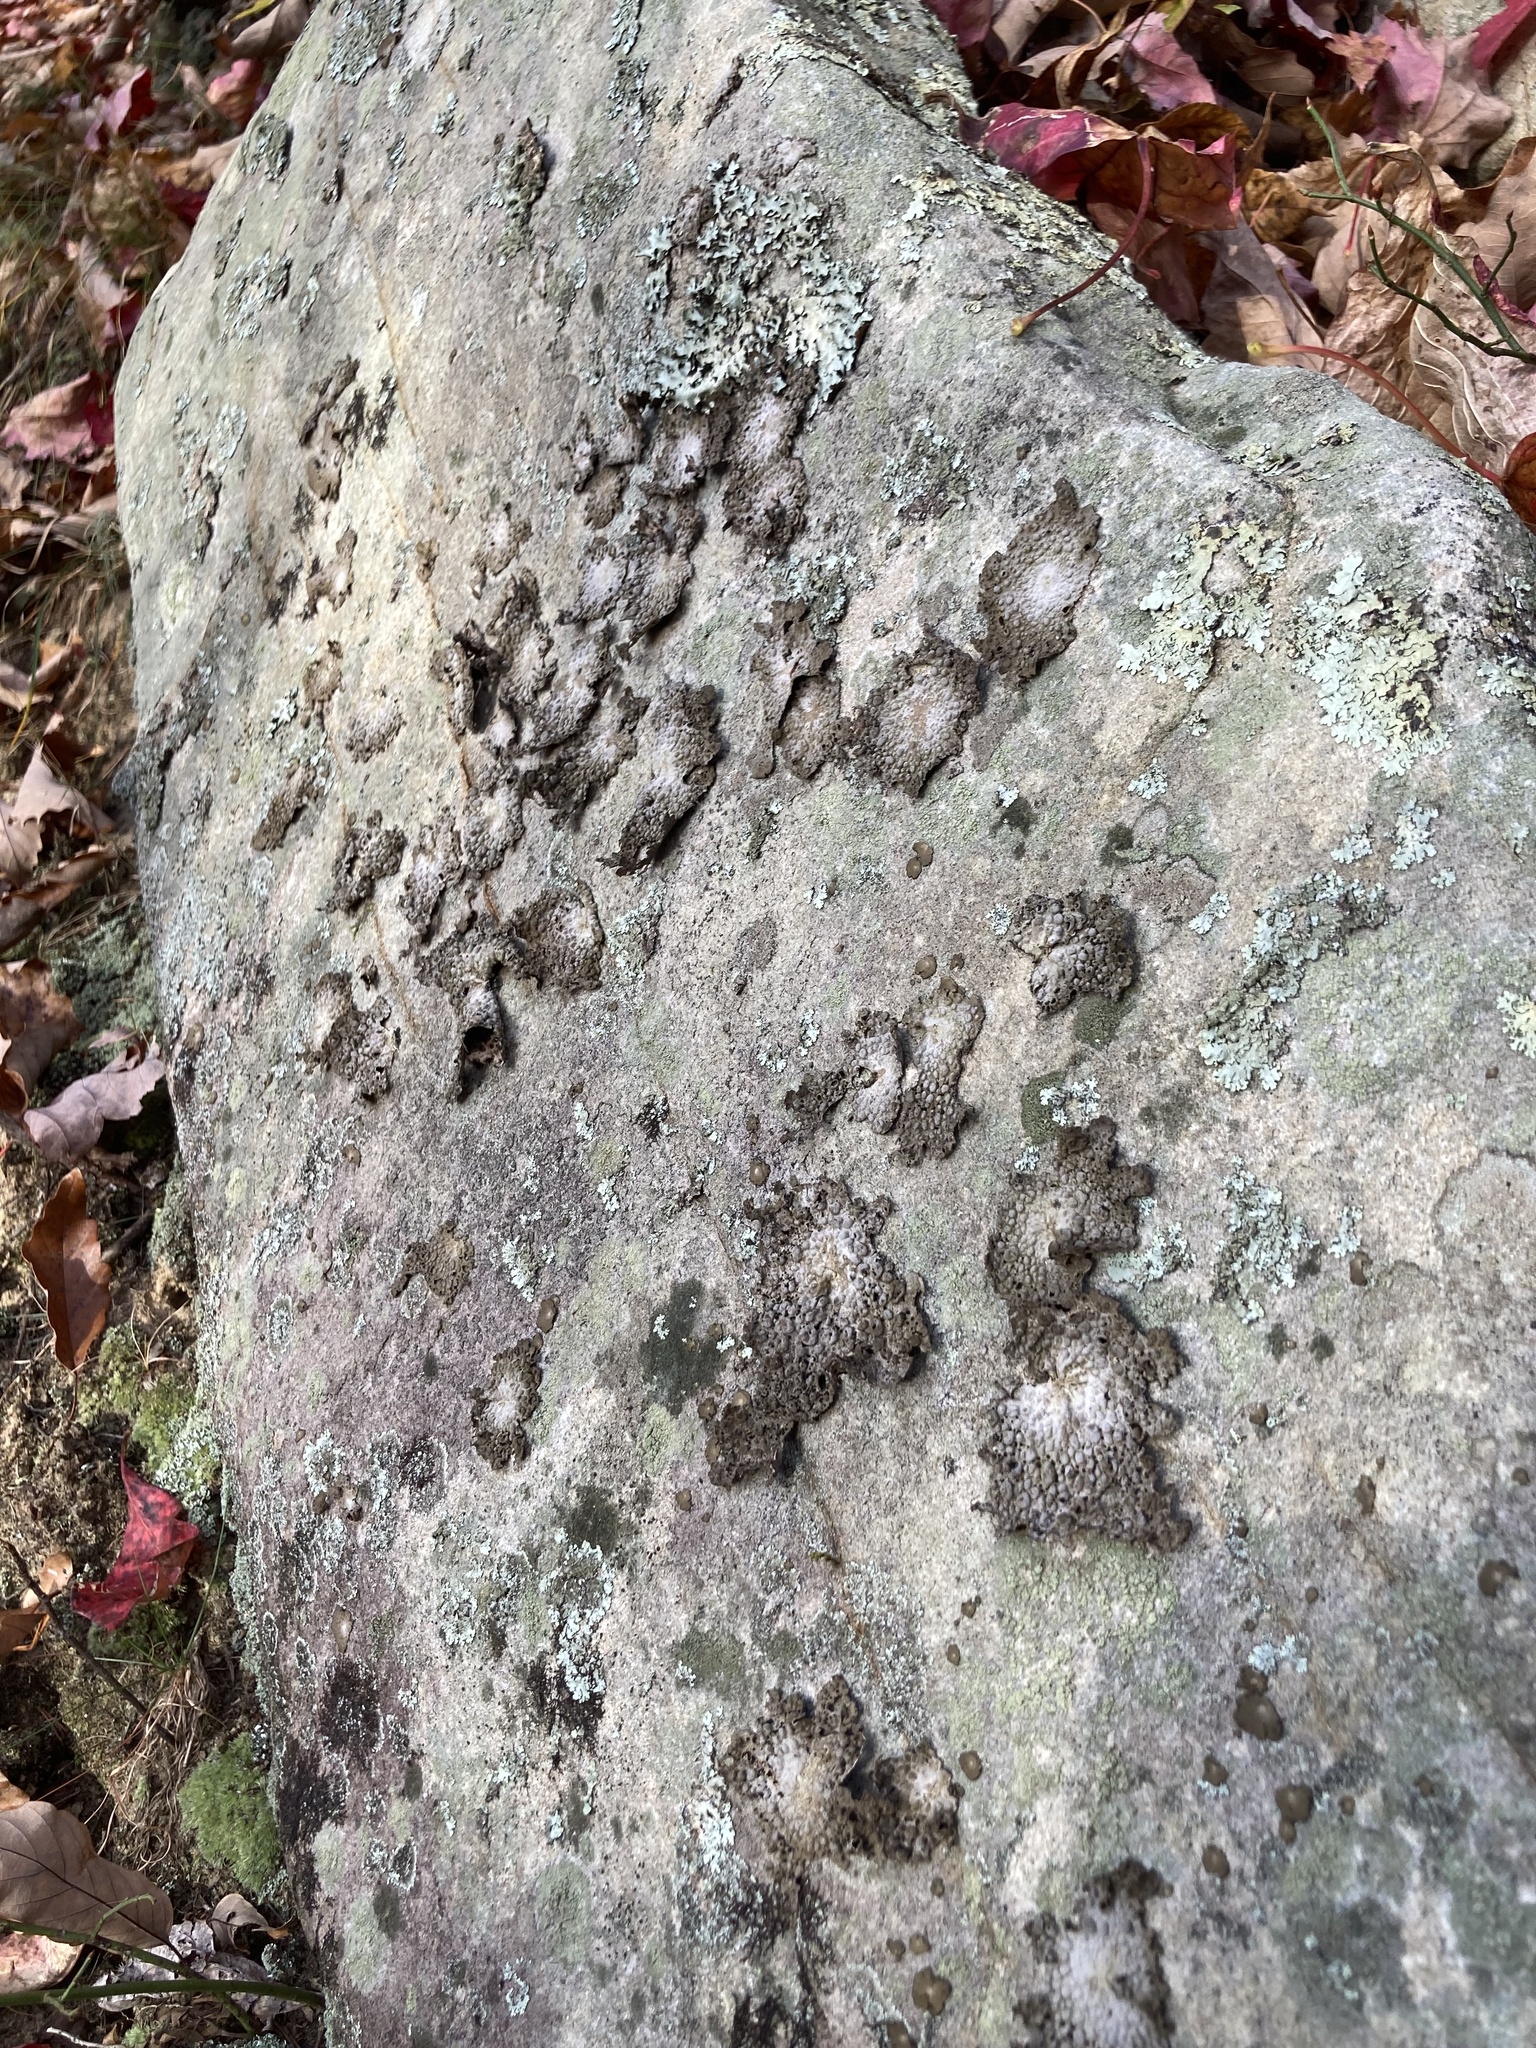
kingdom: Fungi
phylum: Ascomycota
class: Lecanoromycetes
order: Umbilicariales
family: Umbilicariaceae
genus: Lasallia
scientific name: Lasallia papulosa
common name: Common toadskin lichen
